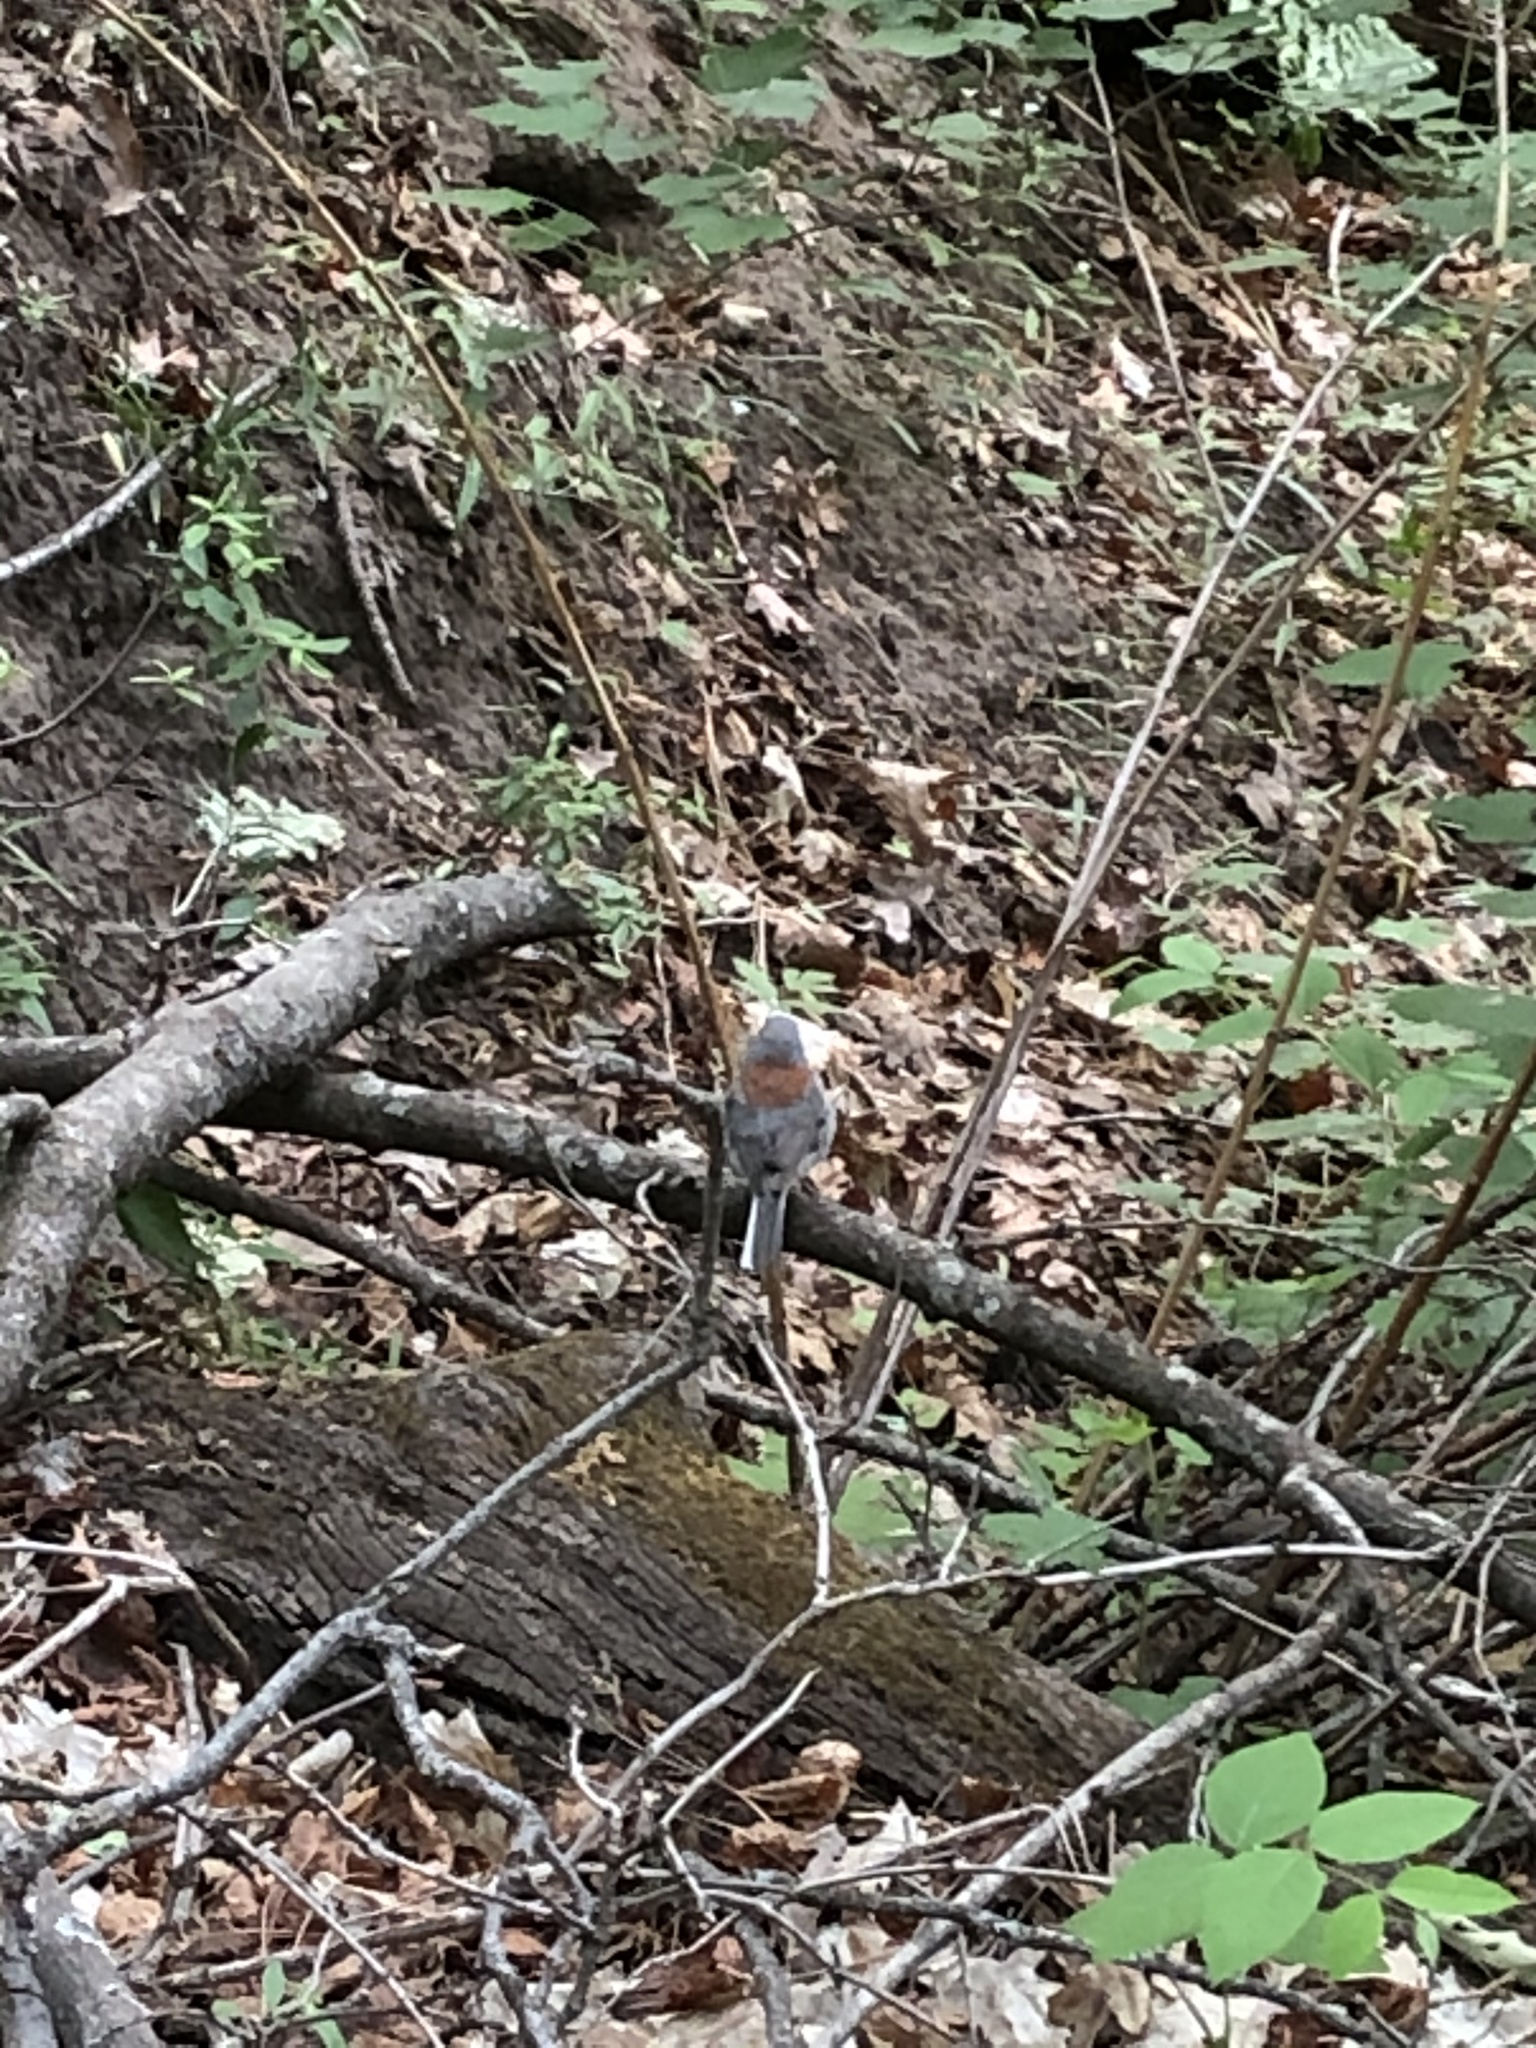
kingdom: Animalia
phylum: Chordata
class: Aves
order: Passeriformes
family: Passerellidae
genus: Junco
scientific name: Junco hyemalis
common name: Dark-eyed junco
